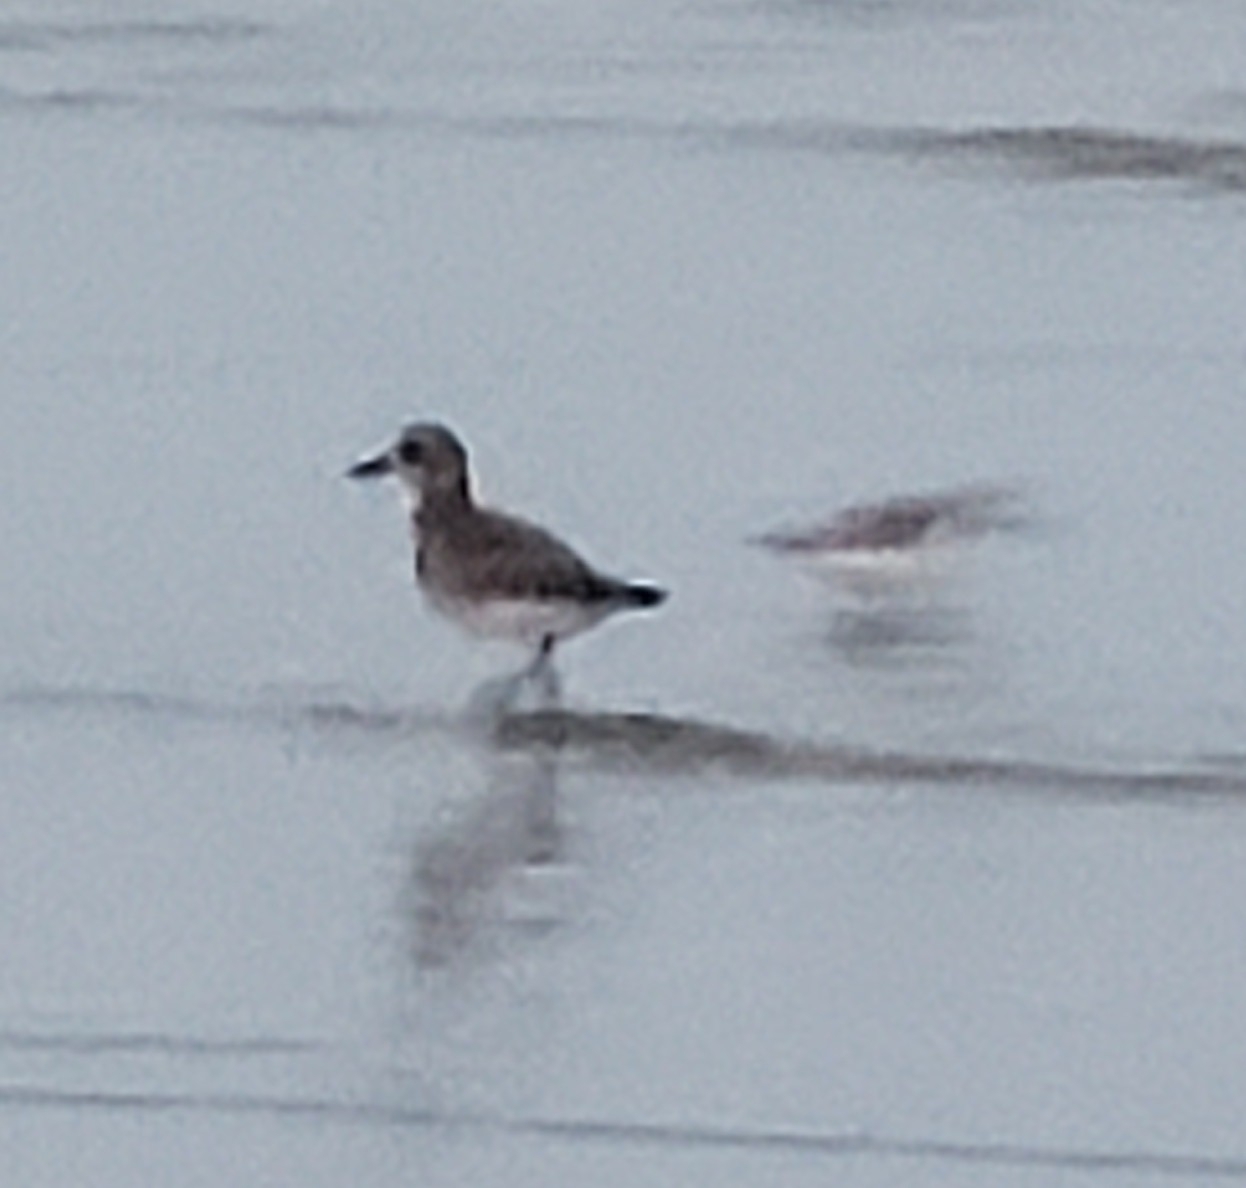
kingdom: Animalia
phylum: Chordata
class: Aves
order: Charadriiformes
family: Charadriidae
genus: Pluvialis
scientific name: Pluvialis squatarola
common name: Grey plover
